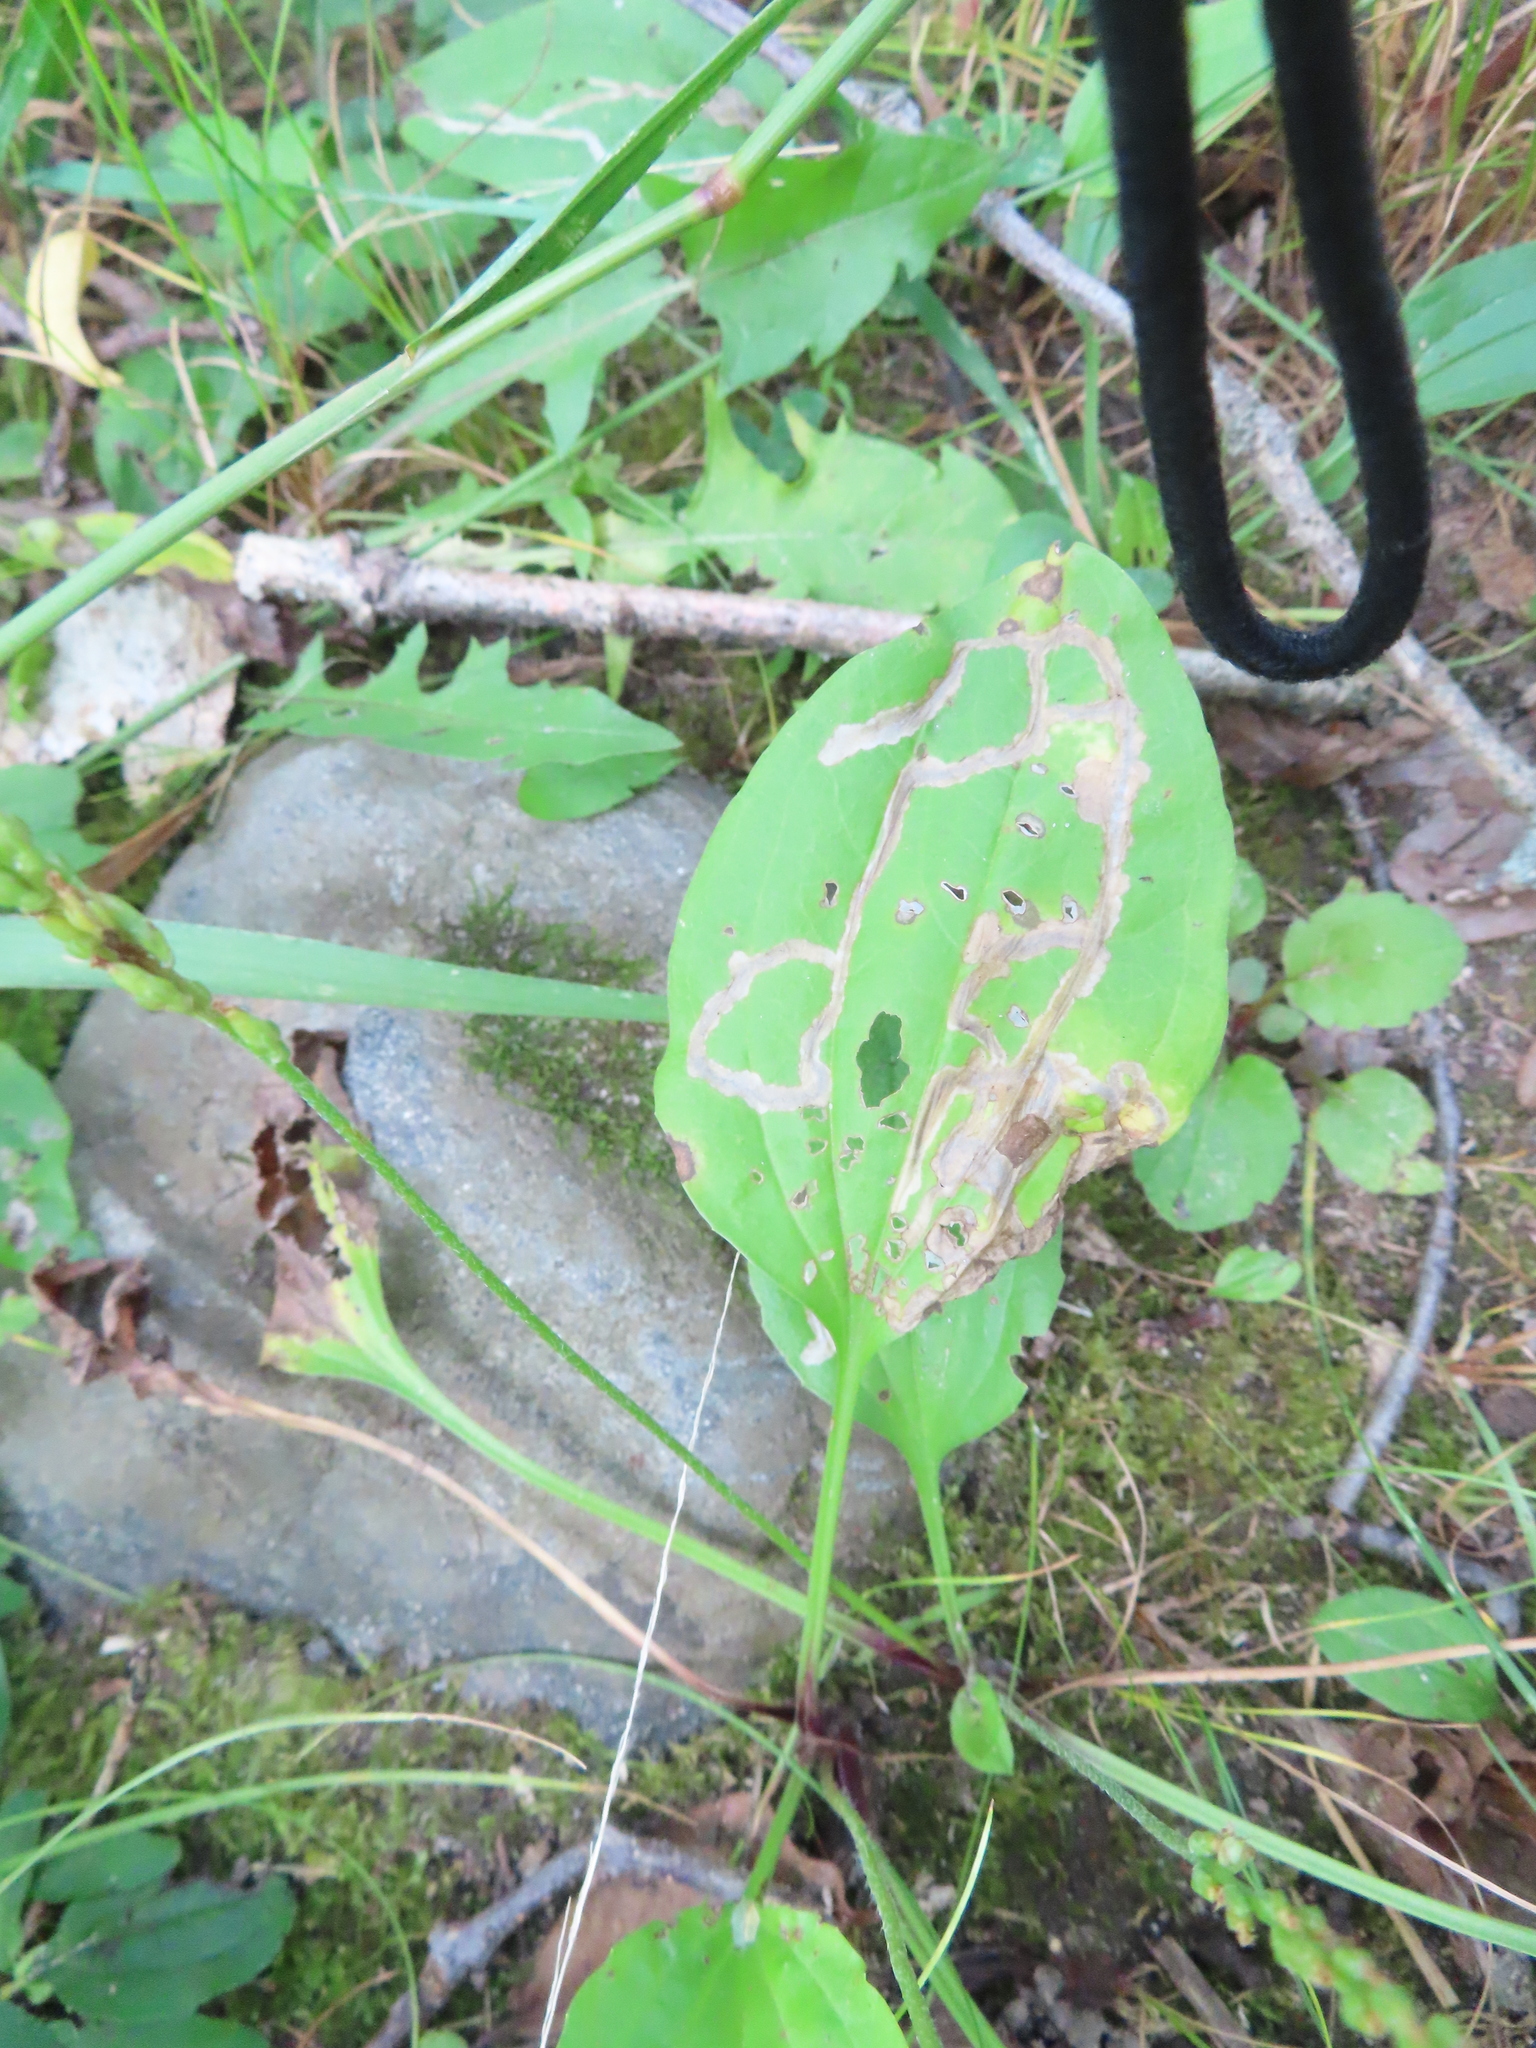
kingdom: Animalia
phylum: Arthropoda
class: Insecta
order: Coleoptera
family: Chrysomelidae
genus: Dibolia
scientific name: Dibolia borealis
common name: Northern plantain flea beetle
